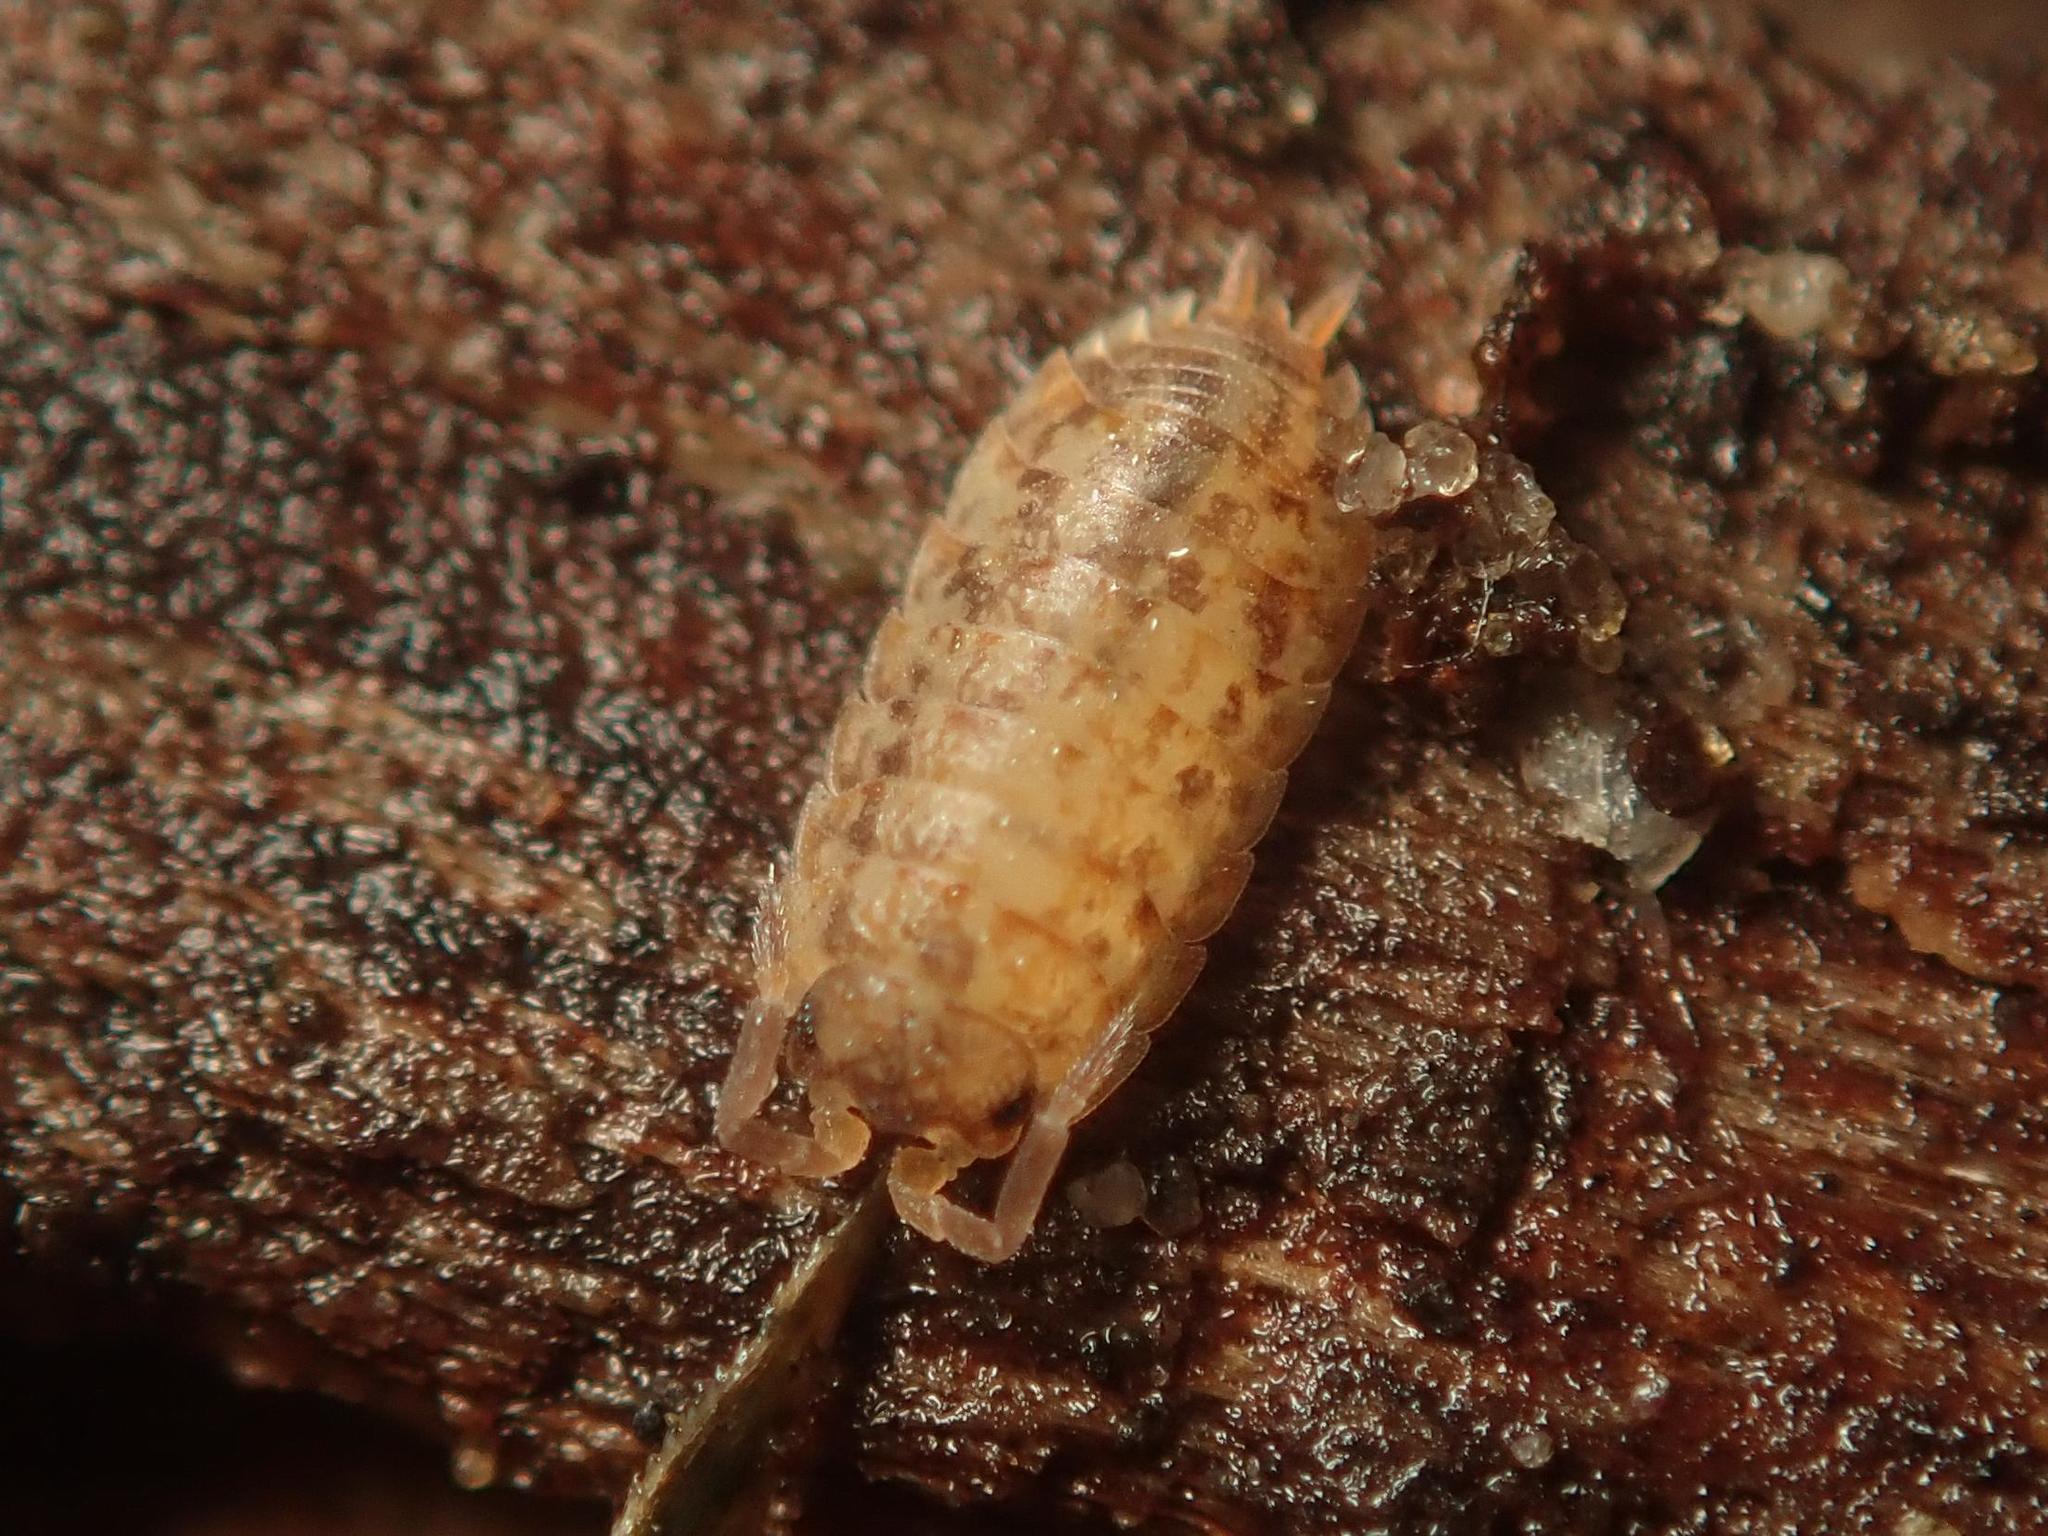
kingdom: Animalia
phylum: Arthropoda
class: Malacostraca
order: Isopoda
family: Trachelipodidae
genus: Porcellium
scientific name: Porcellium collicola
